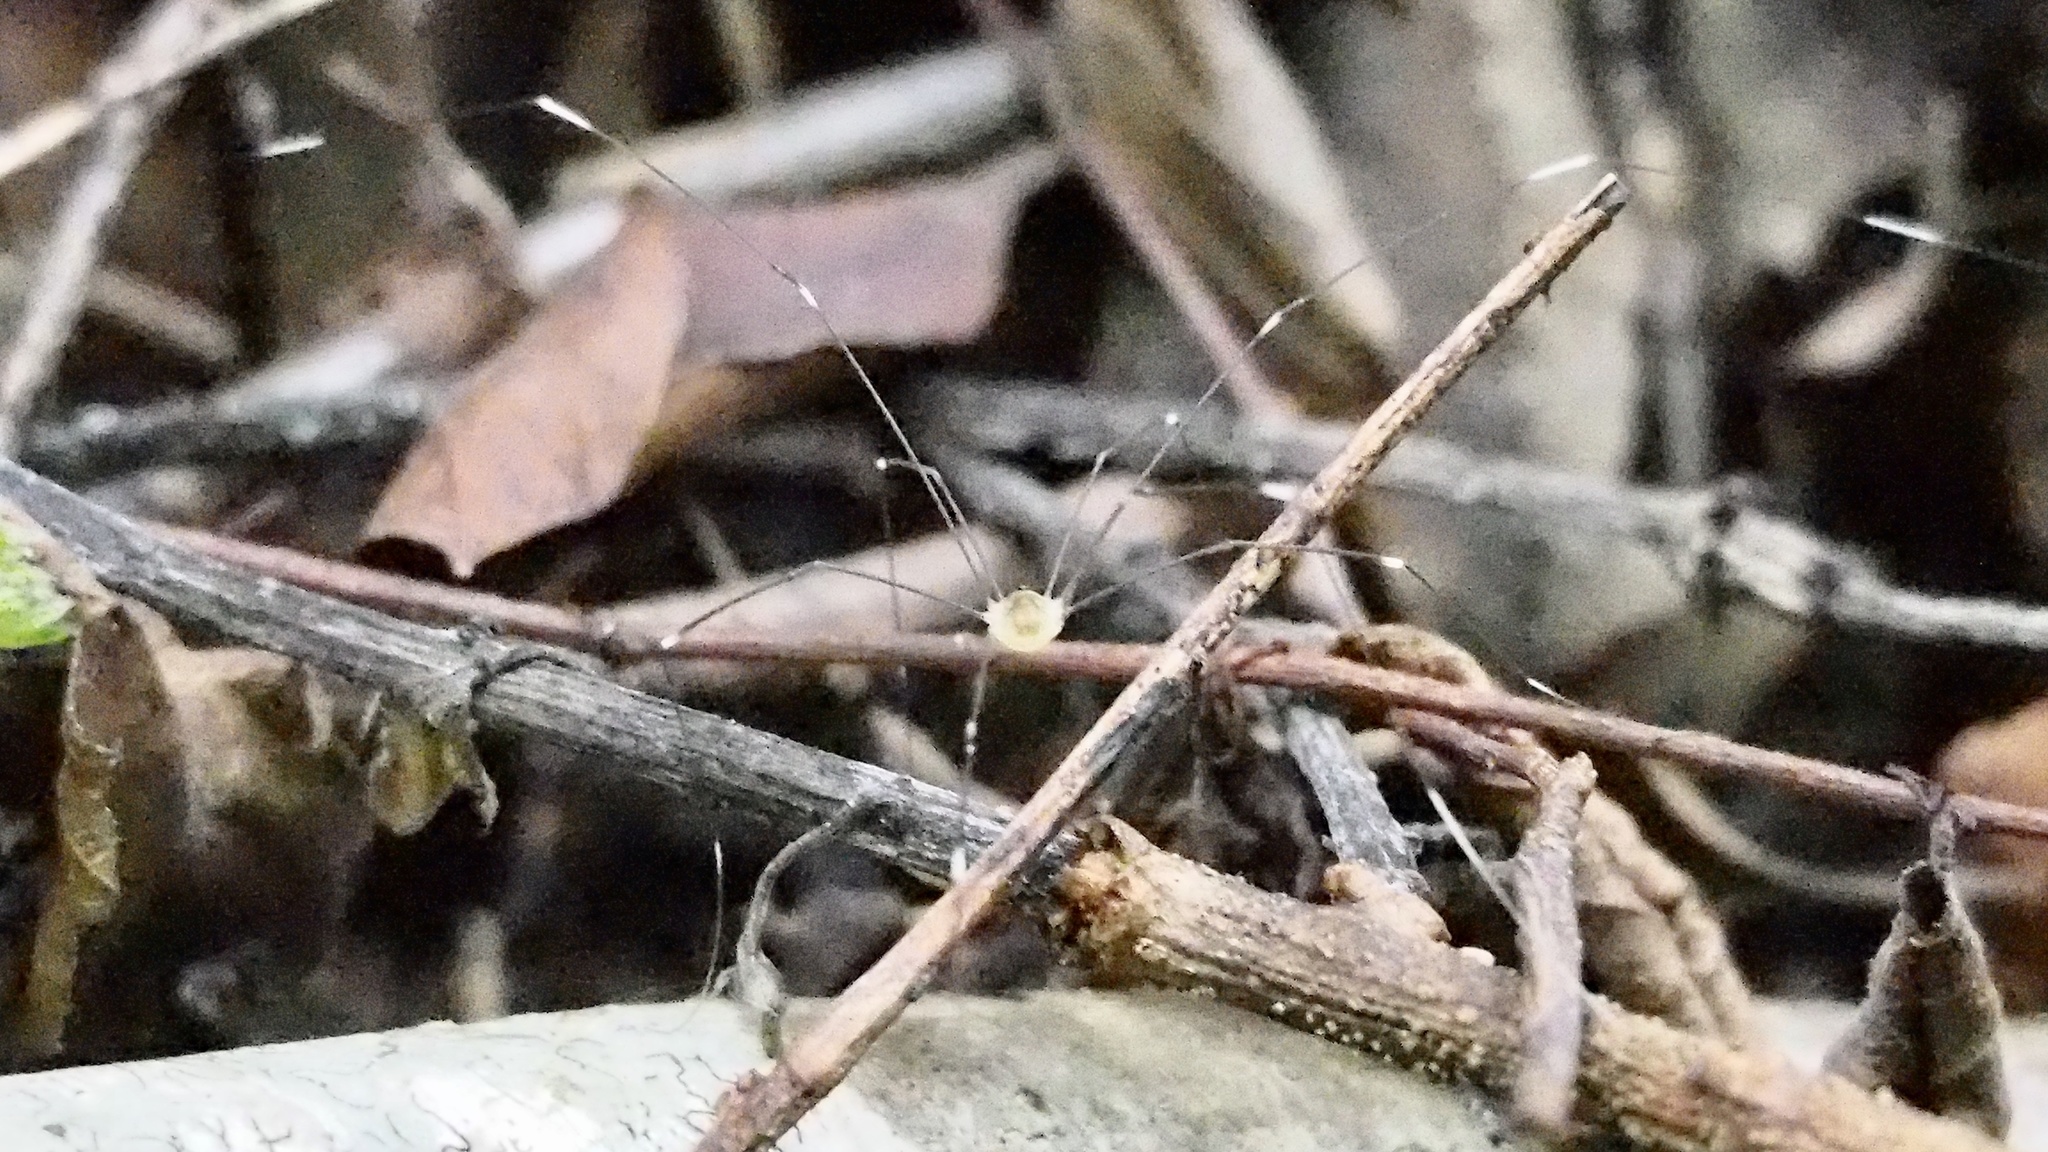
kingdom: Animalia
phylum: Arthropoda
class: Arachnida
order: Opiliones
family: Sclerosomatidae
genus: Leiobunum
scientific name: Leiobunum japonicum
